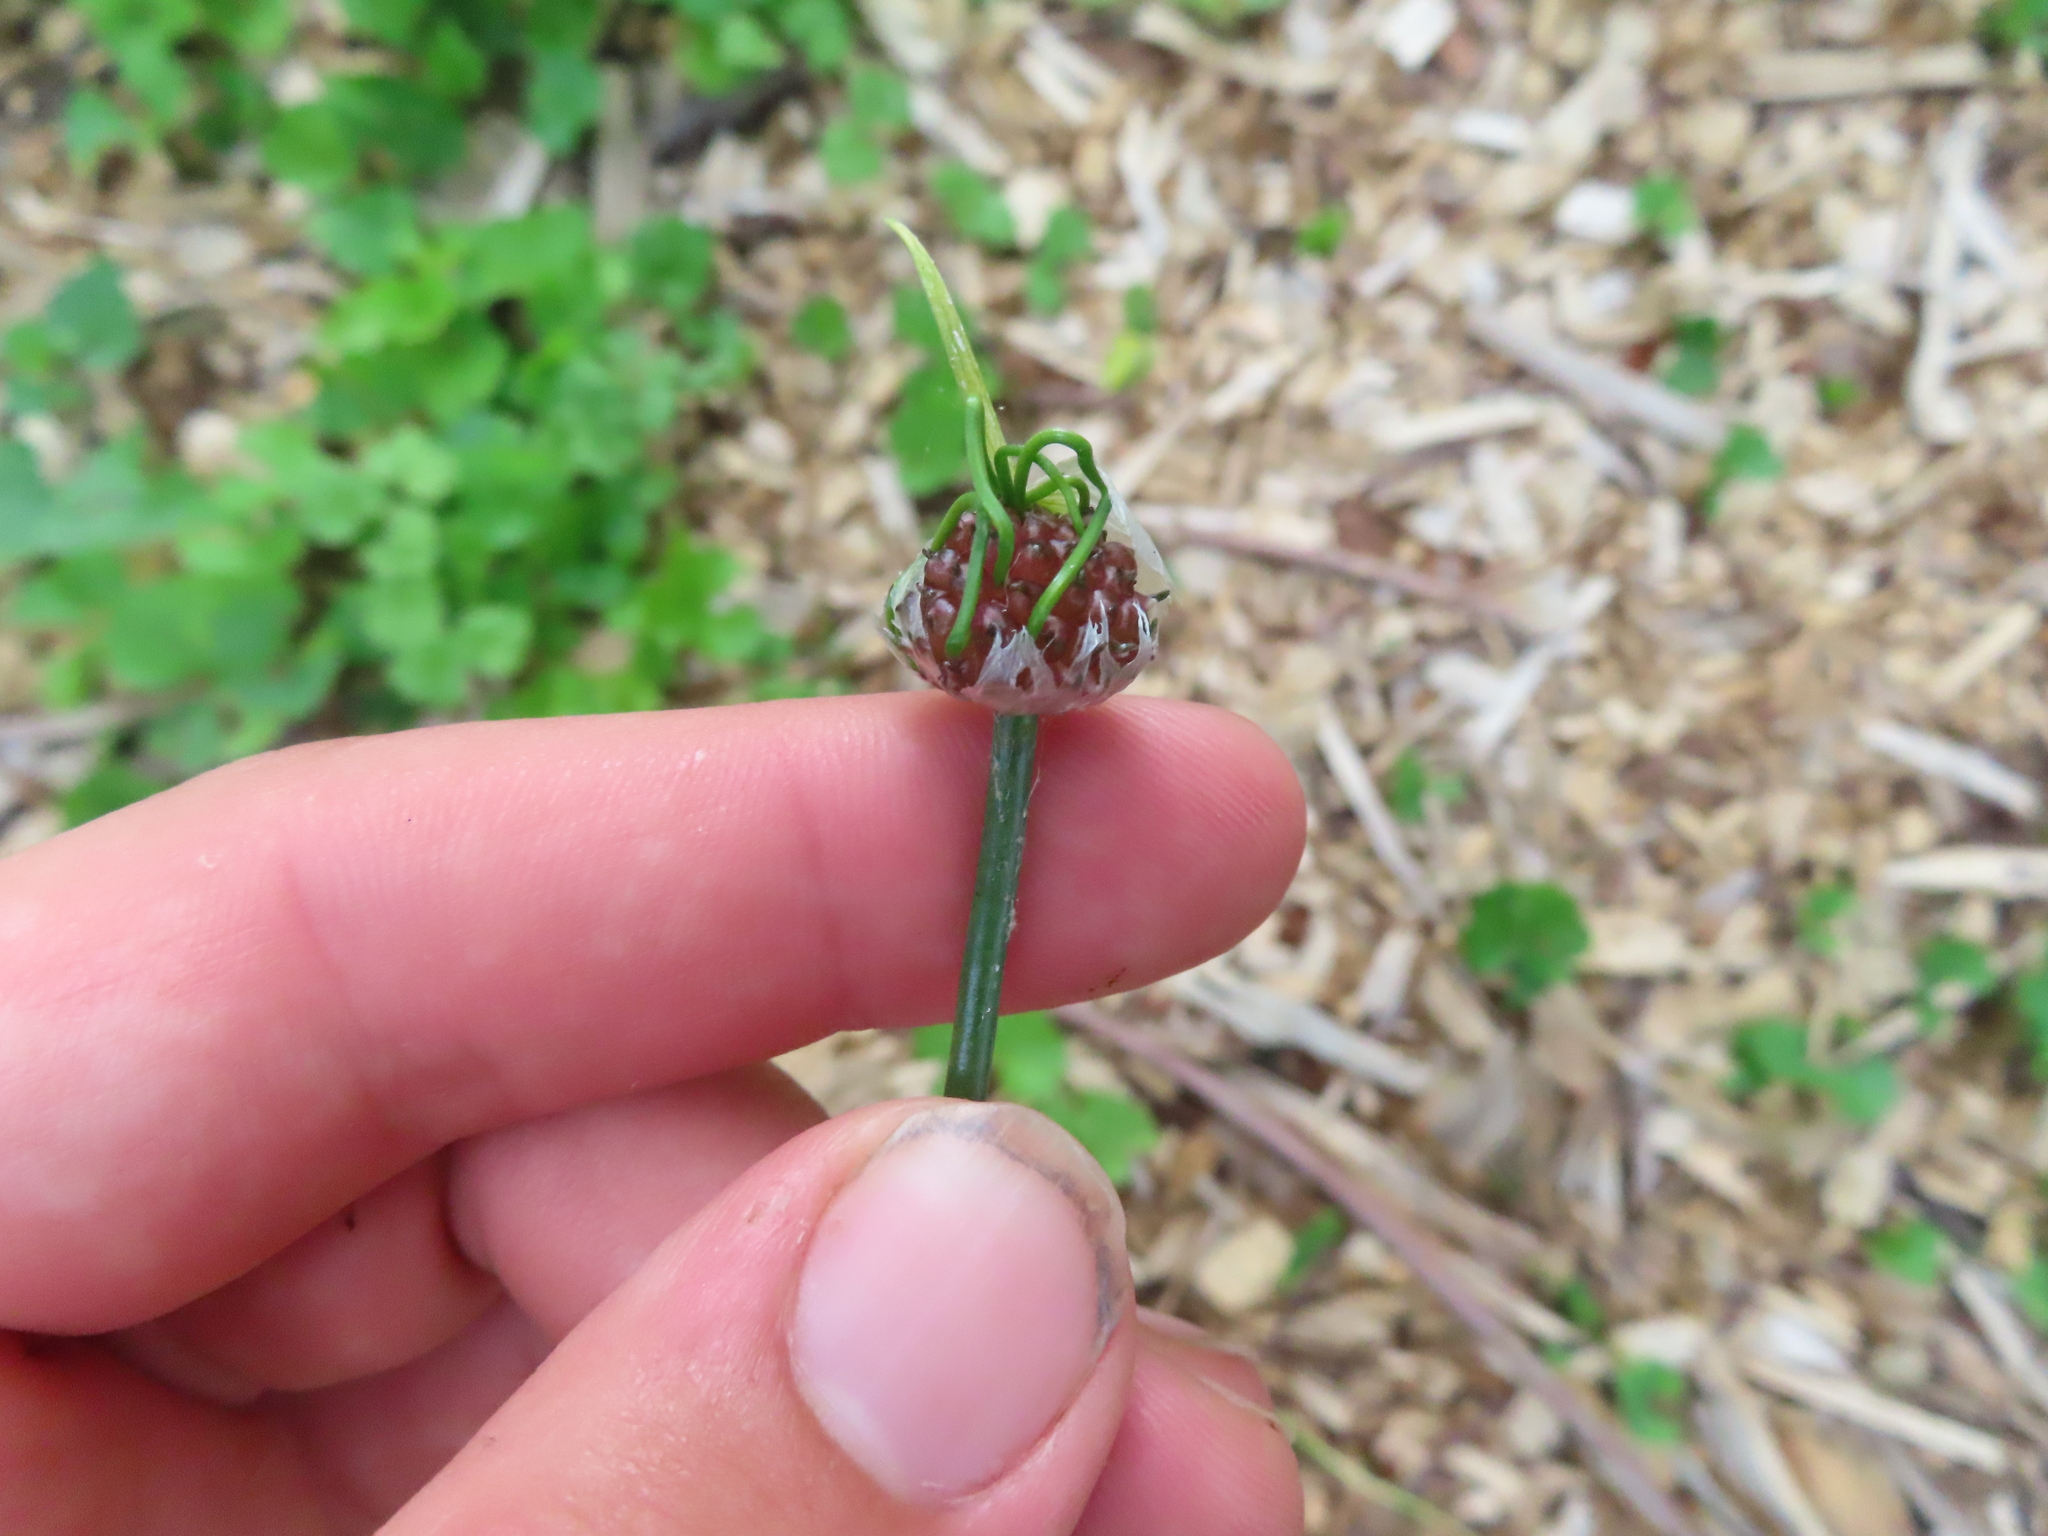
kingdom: Plantae
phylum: Tracheophyta
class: Liliopsida
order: Asparagales
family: Amaryllidaceae
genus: Allium
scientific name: Allium vineale
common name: Crow garlic
